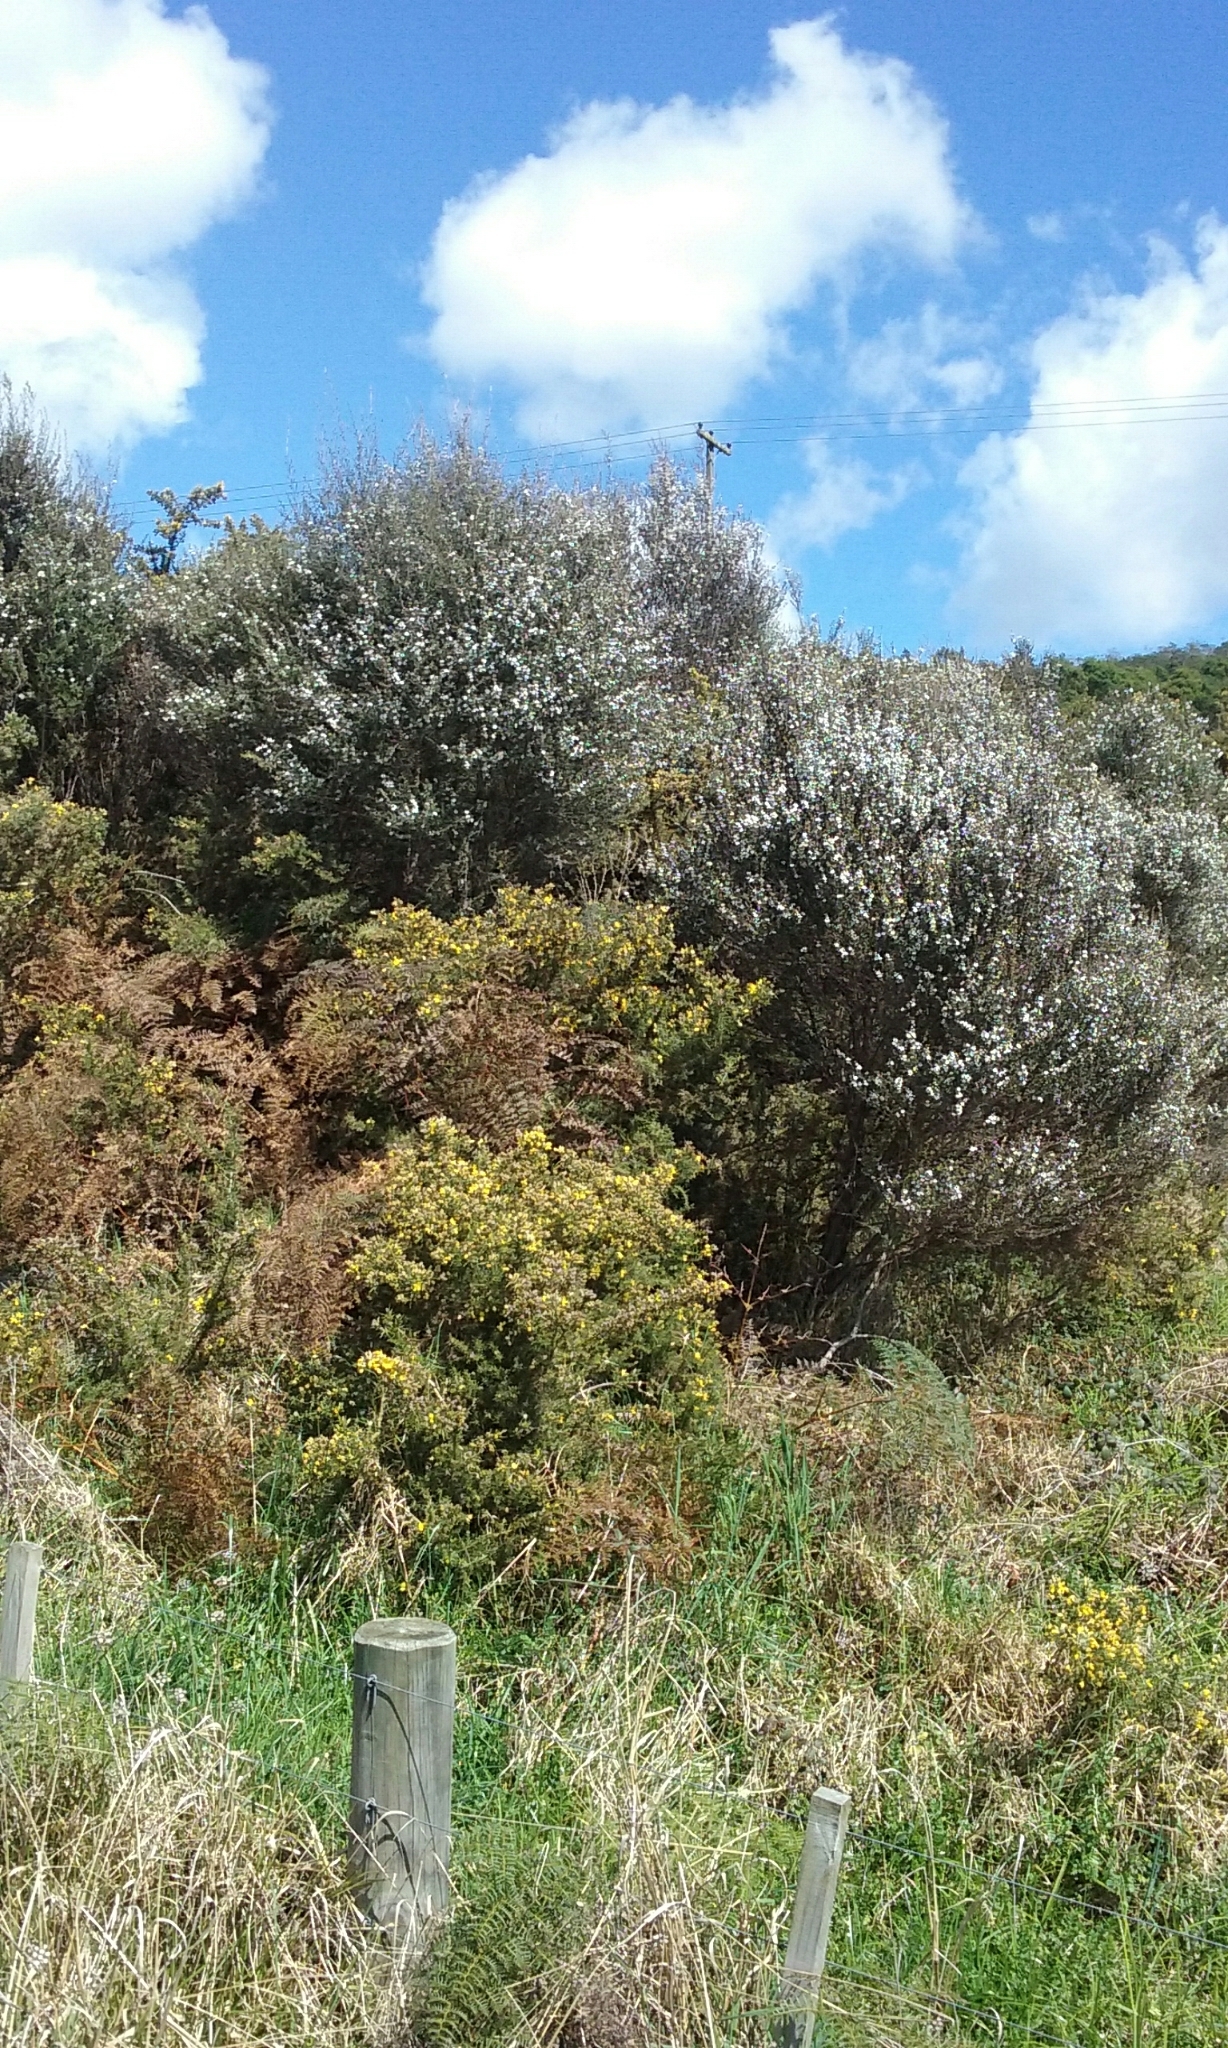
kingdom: Plantae
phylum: Tracheophyta
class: Magnoliopsida
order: Myrtales
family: Myrtaceae
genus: Leptospermum
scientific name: Leptospermum scoparium
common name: Broom tea-tree
